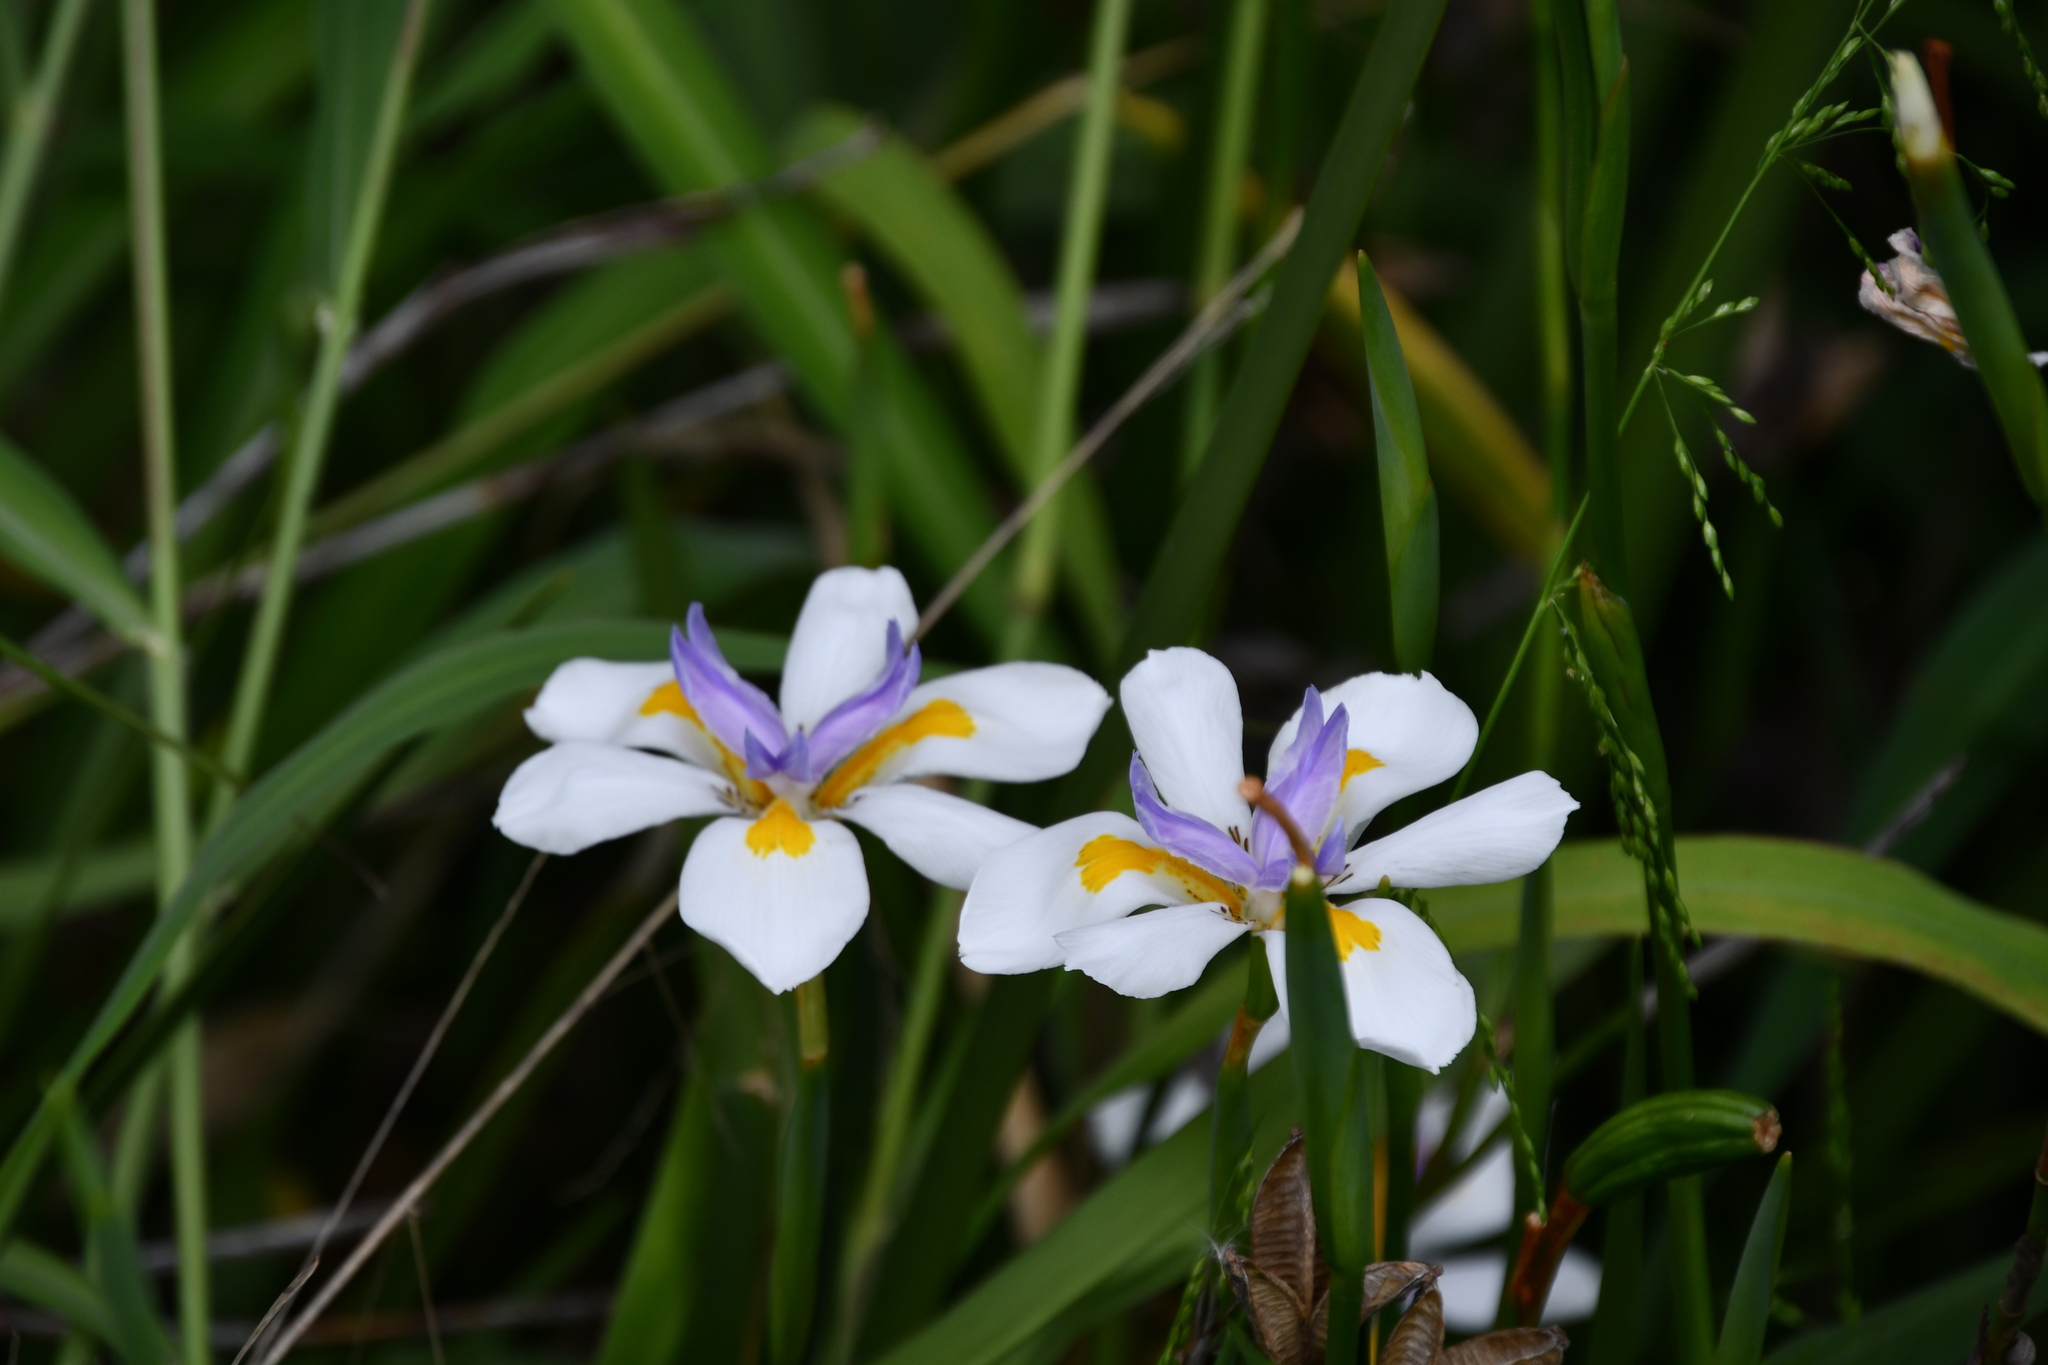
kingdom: Plantae
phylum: Tracheophyta
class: Liliopsida
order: Asparagales
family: Iridaceae
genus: Dietes
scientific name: Dietes grandiflora
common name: Wild iris
